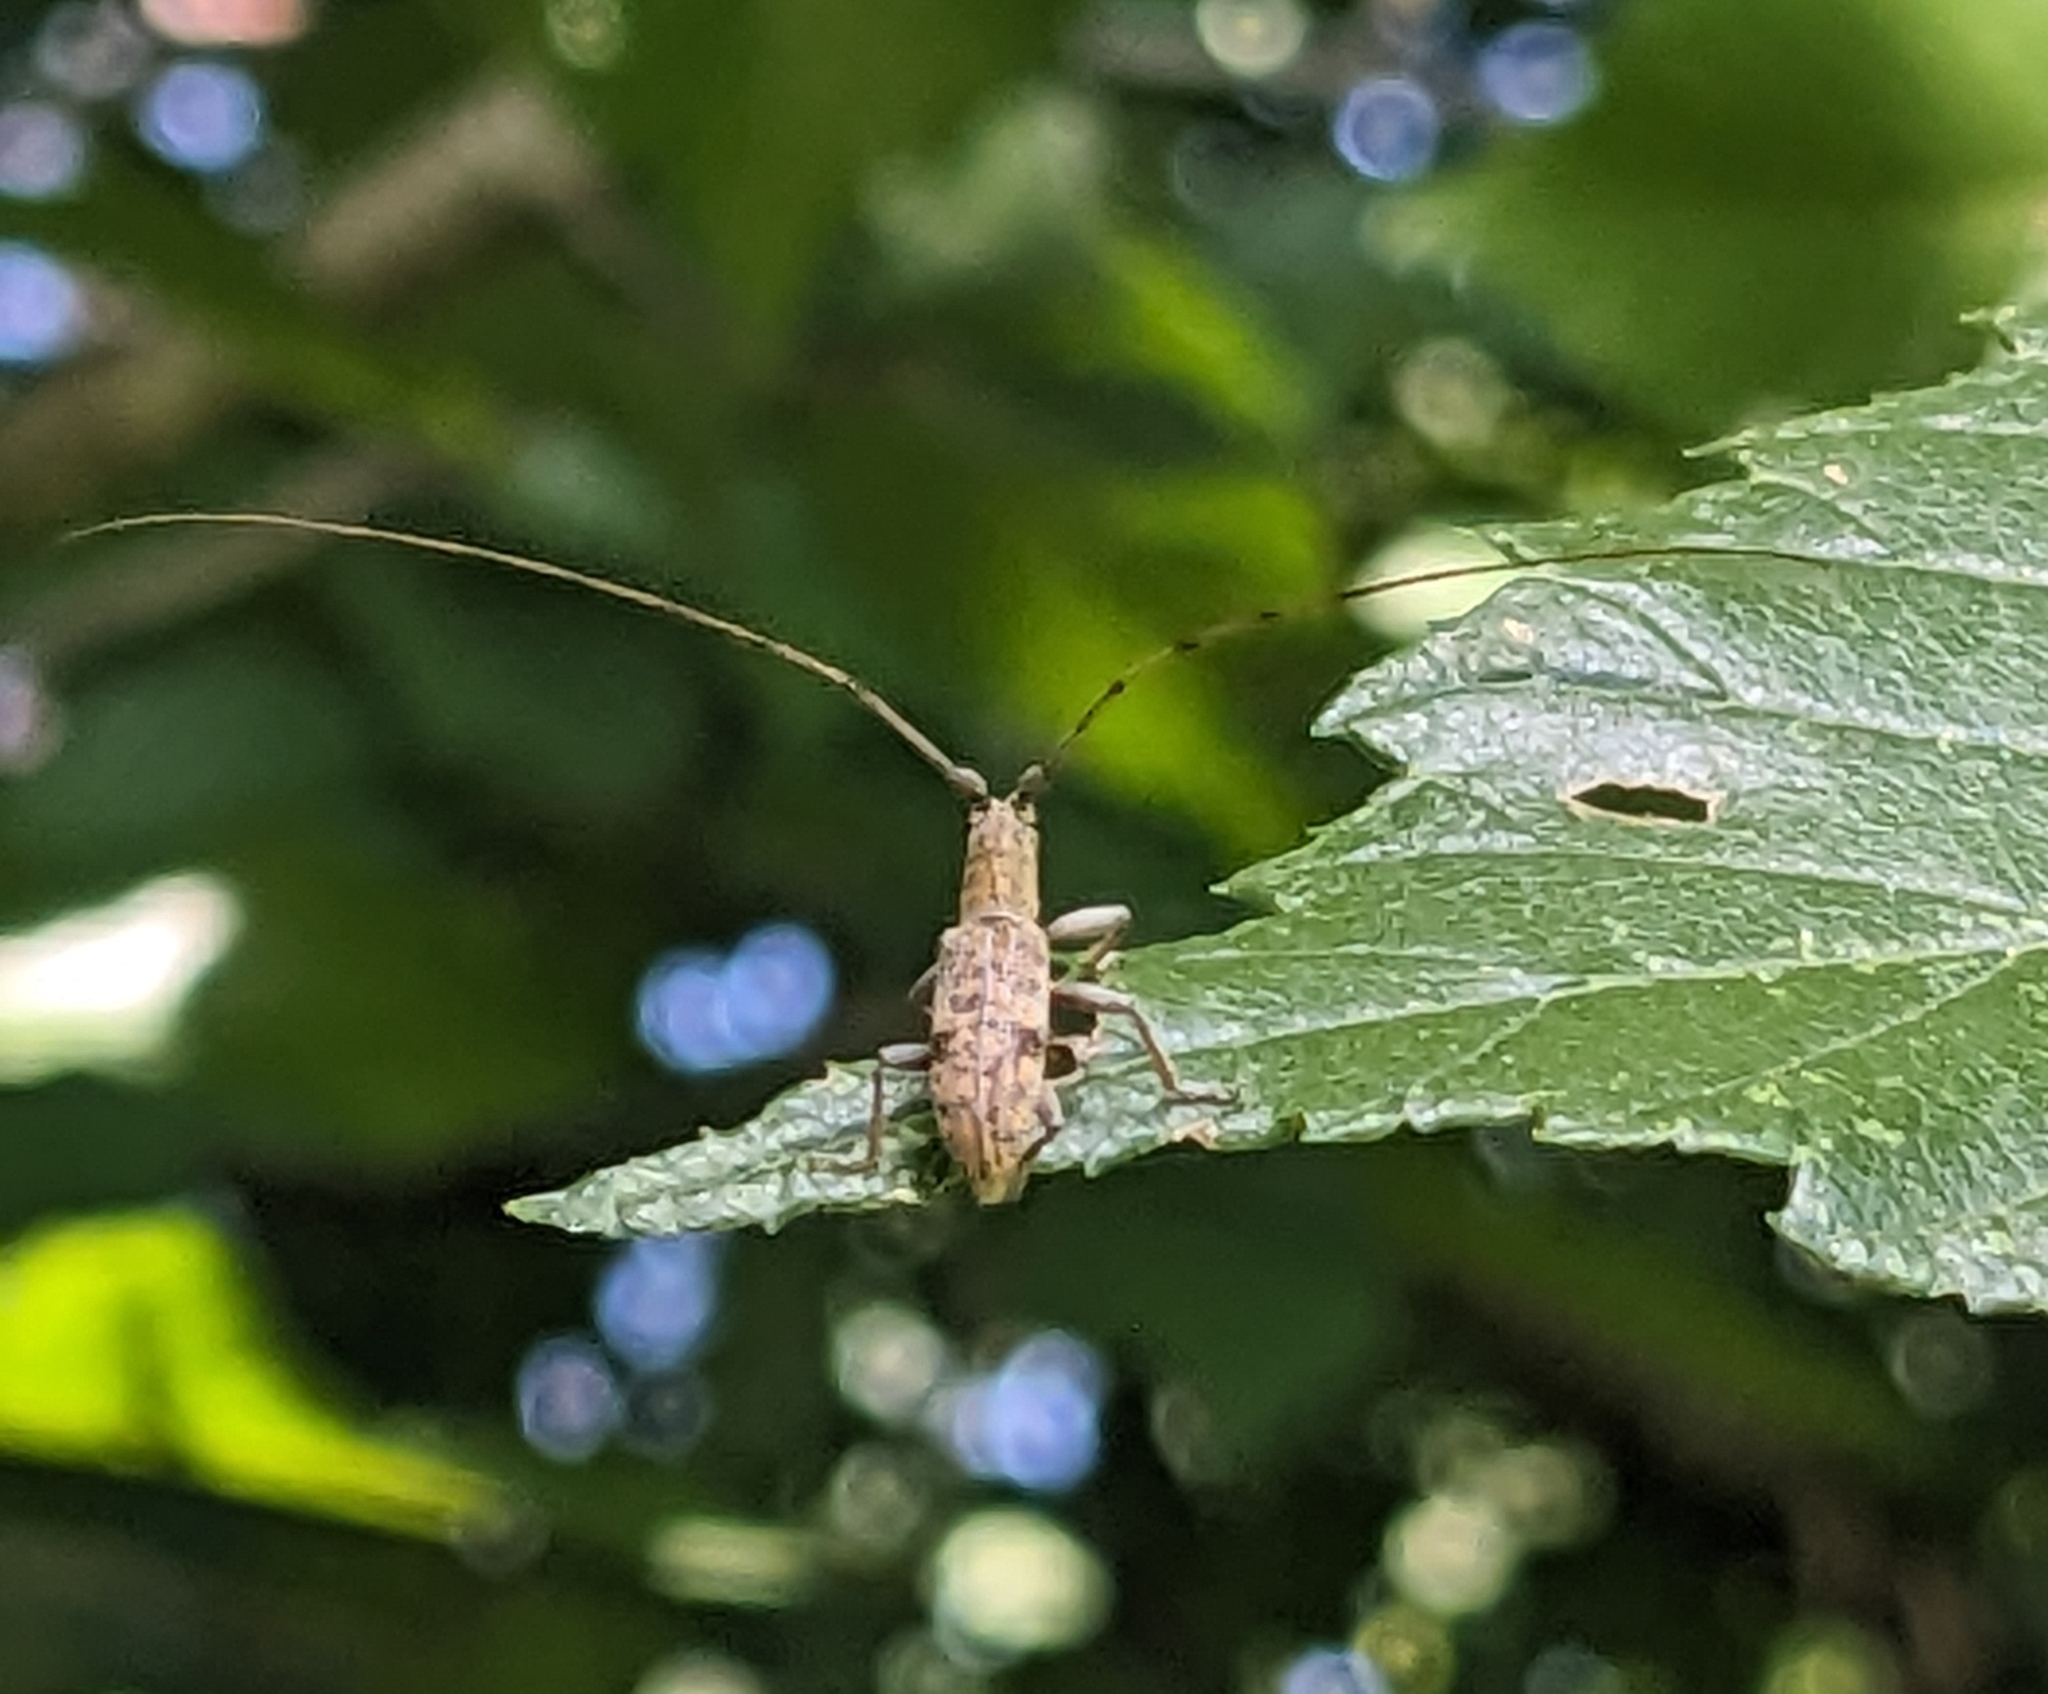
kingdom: Animalia
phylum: Arthropoda
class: Insecta
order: Coleoptera
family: Cerambycidae
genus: Dorcaschema
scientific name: Dorcaschema alternatum
